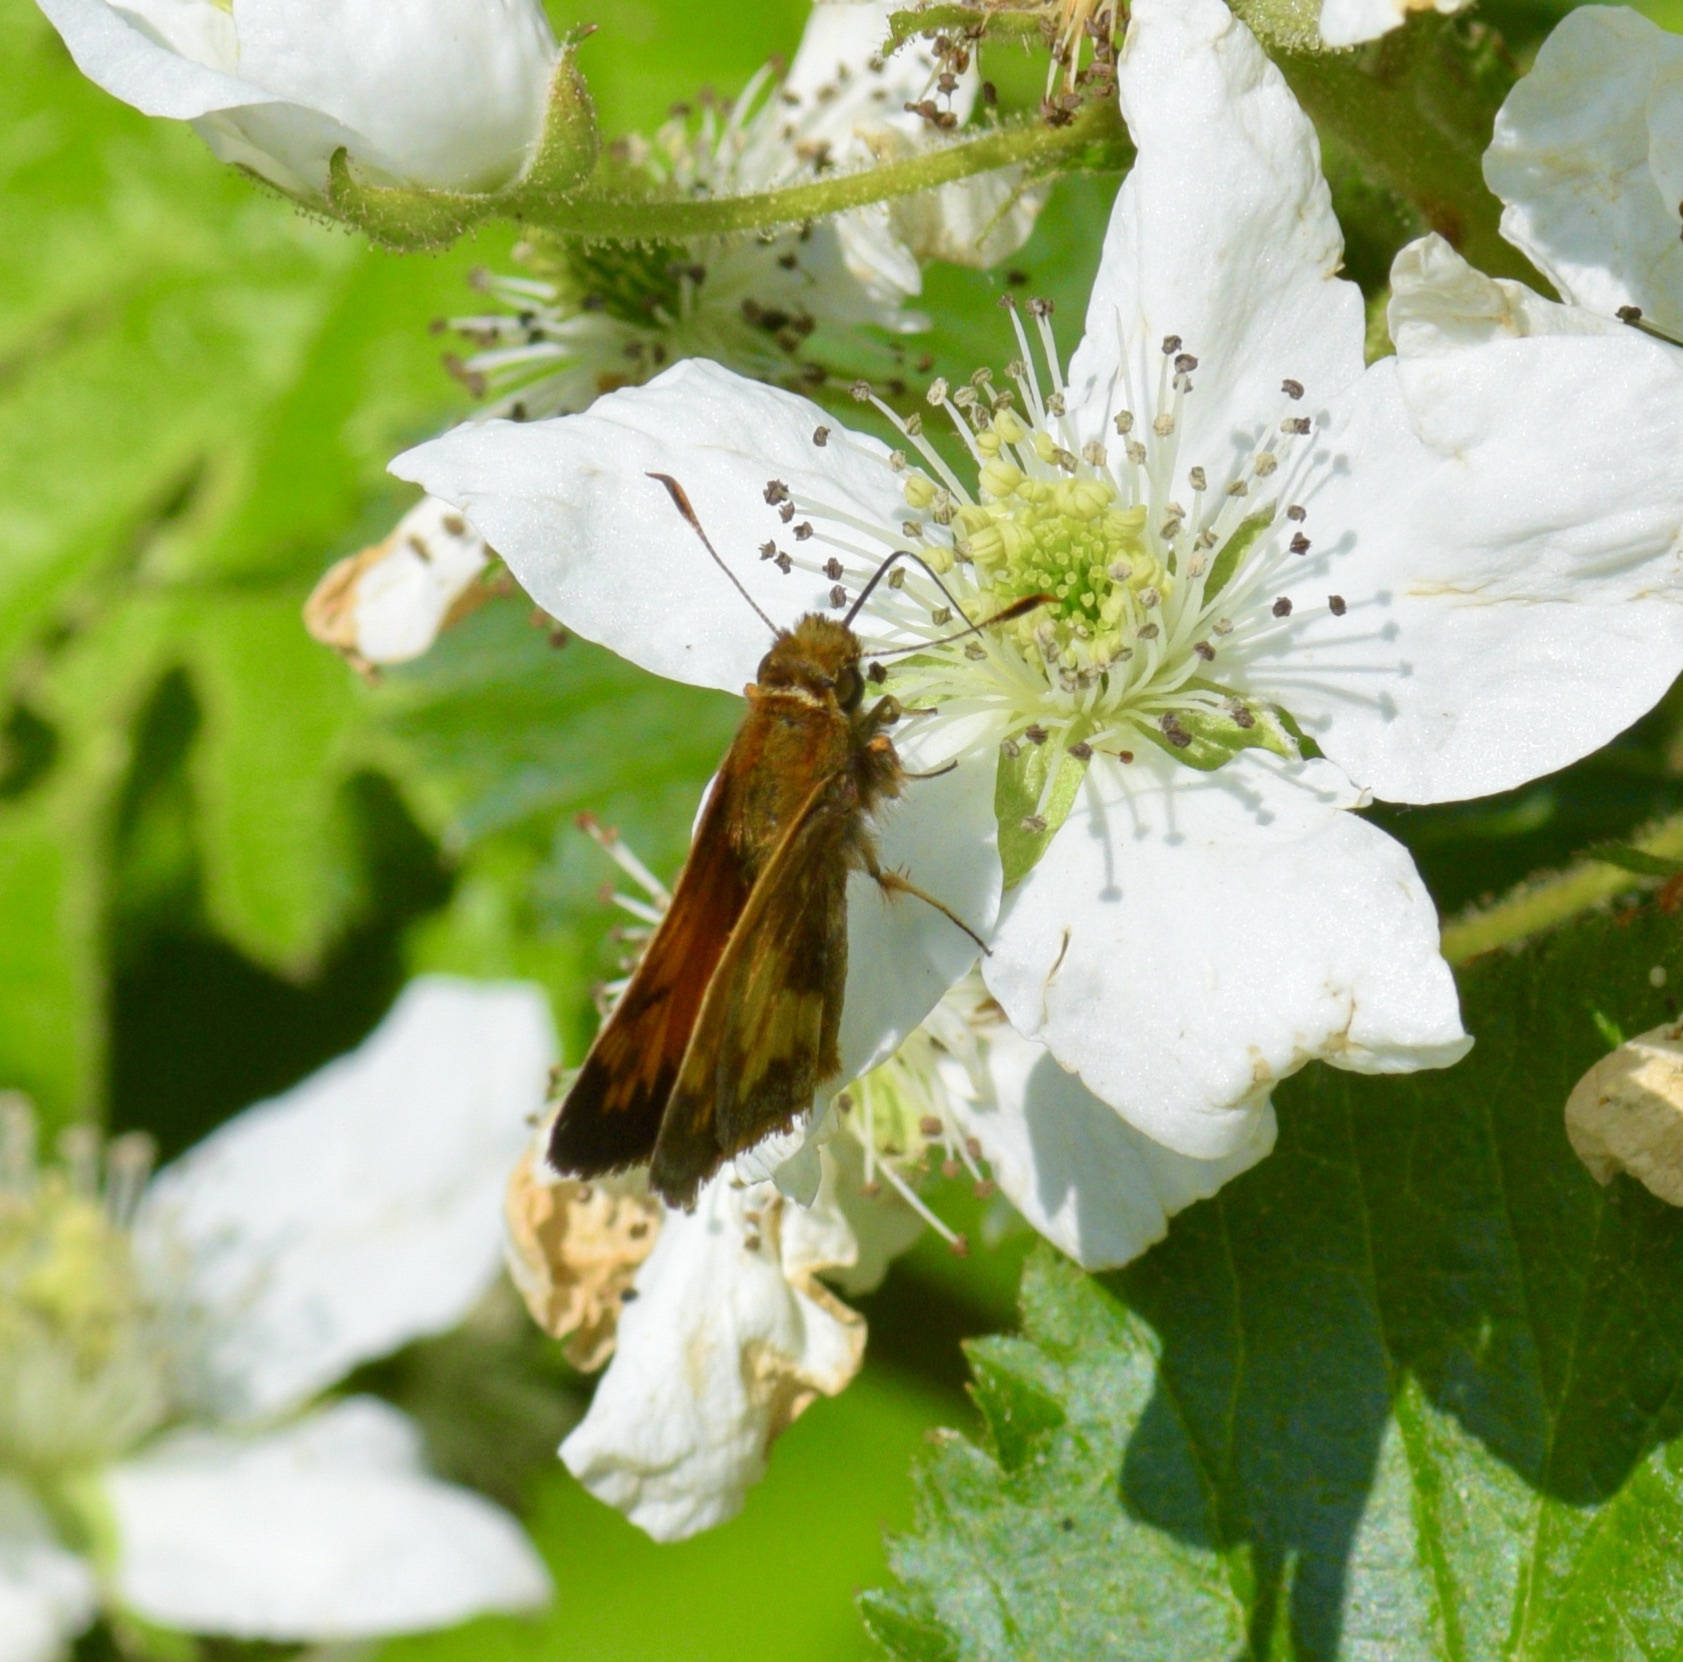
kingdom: Animalia
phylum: Arthropoda
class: Insecta
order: Lepidoptera
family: Hesperiidae
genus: Lon
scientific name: Lon hobomok
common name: Hobomok skipper
